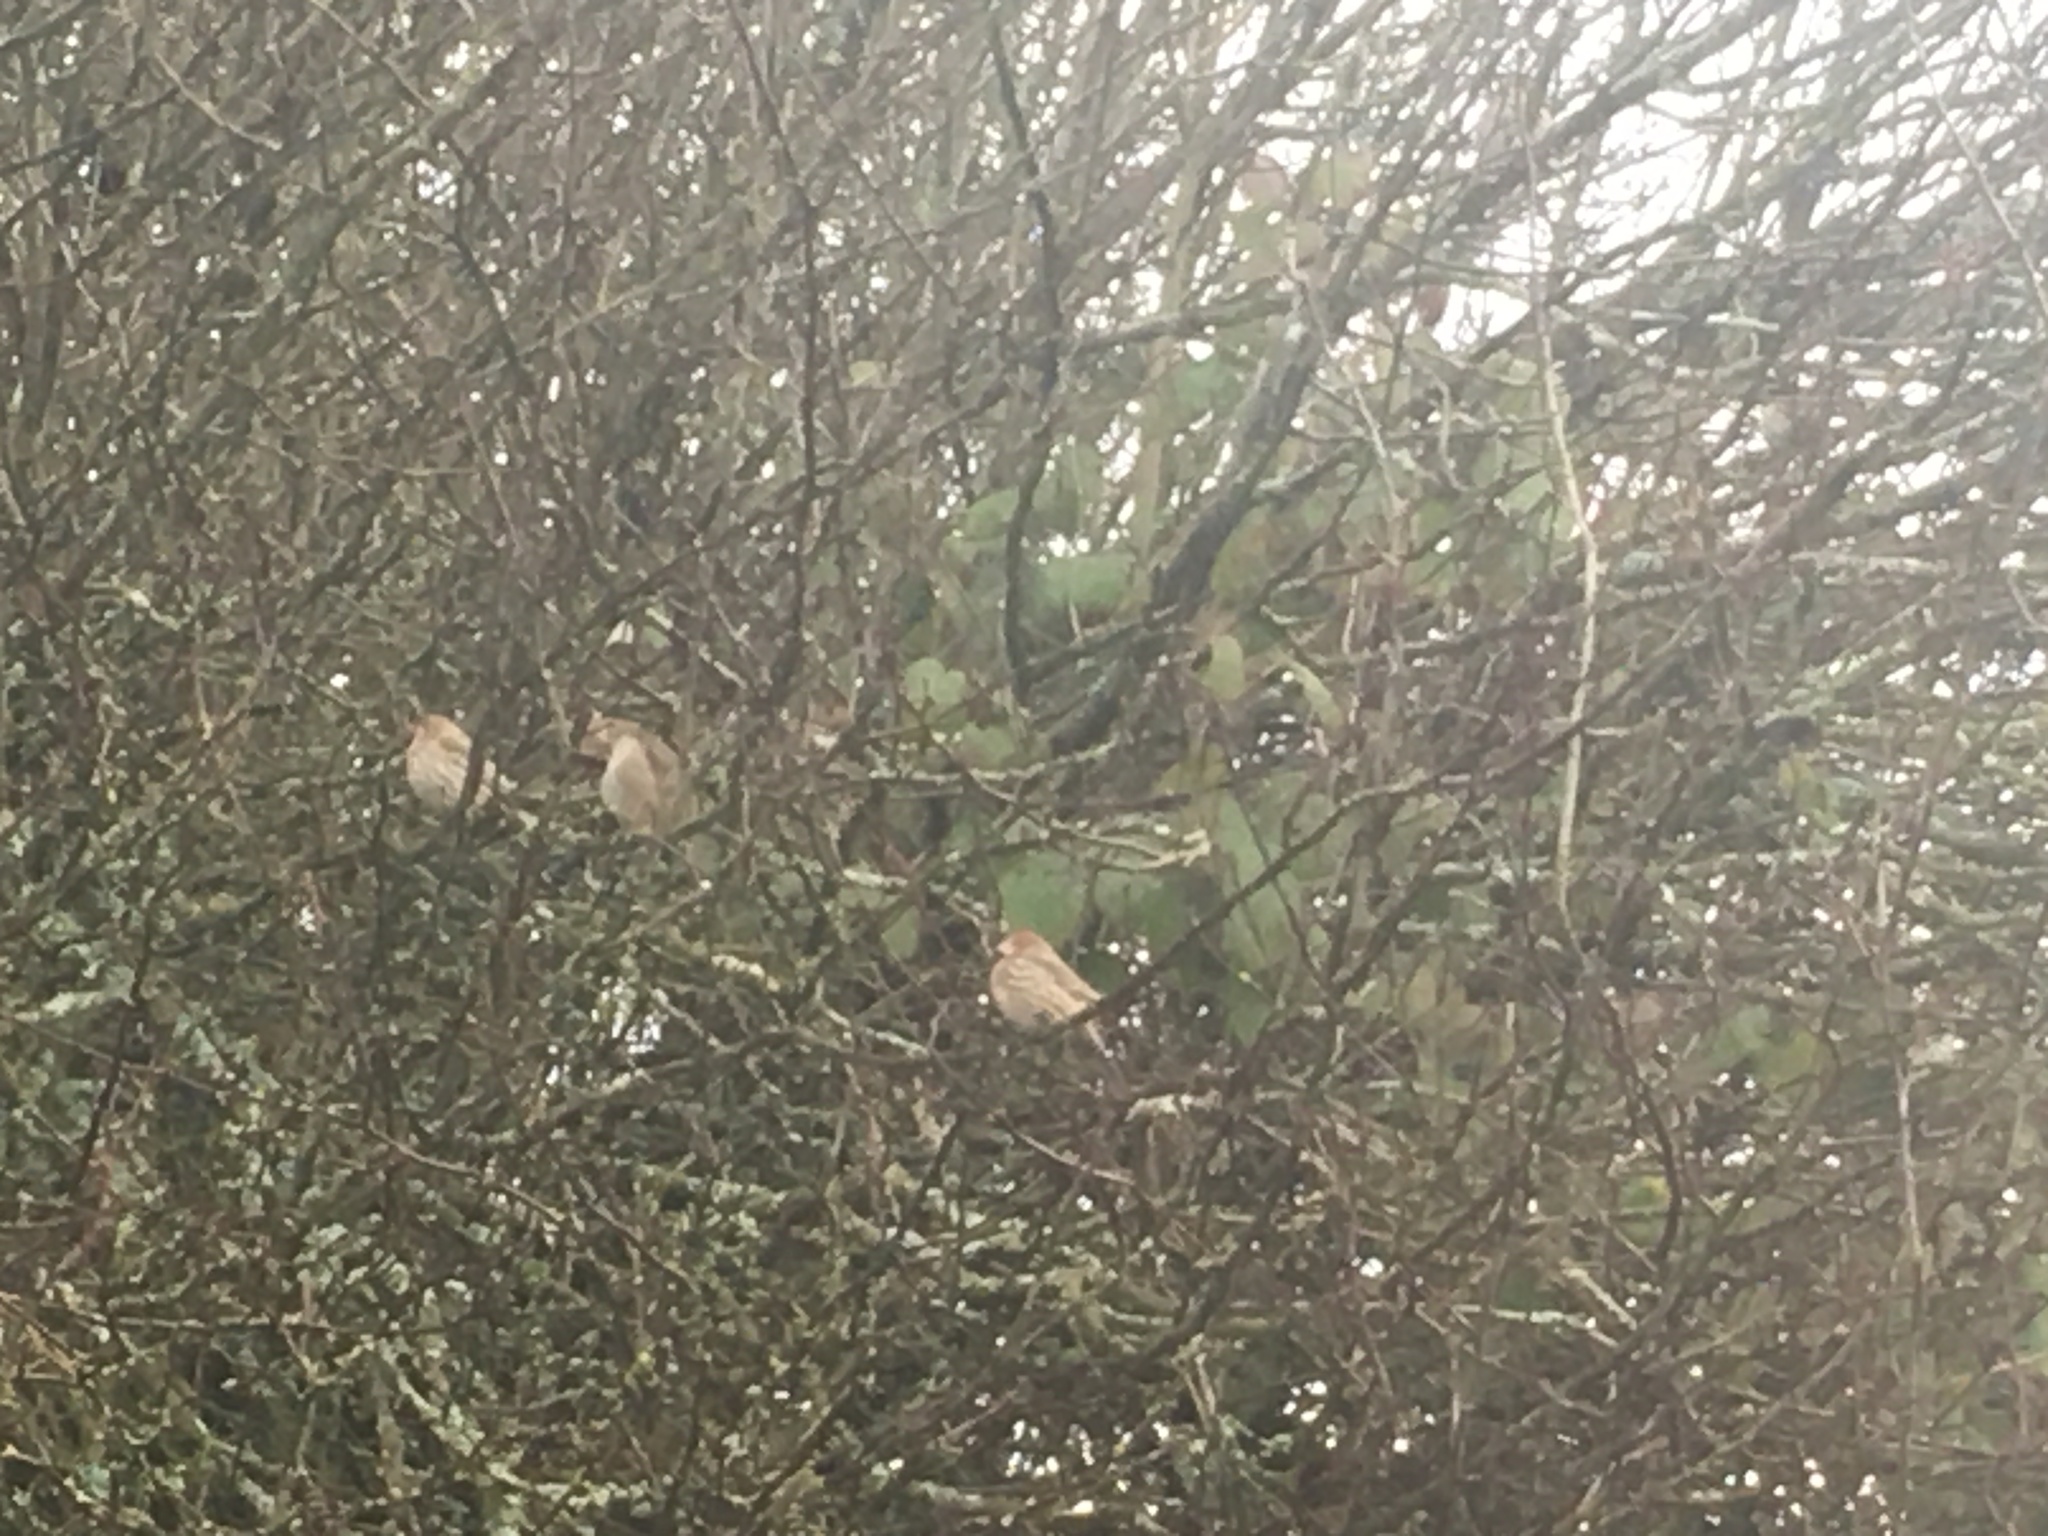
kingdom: Animalia
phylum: Chordata
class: Aves
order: Passeriformes
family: Fringillidae
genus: Haemorhous
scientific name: Haemorhous mexicanus
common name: House finch
